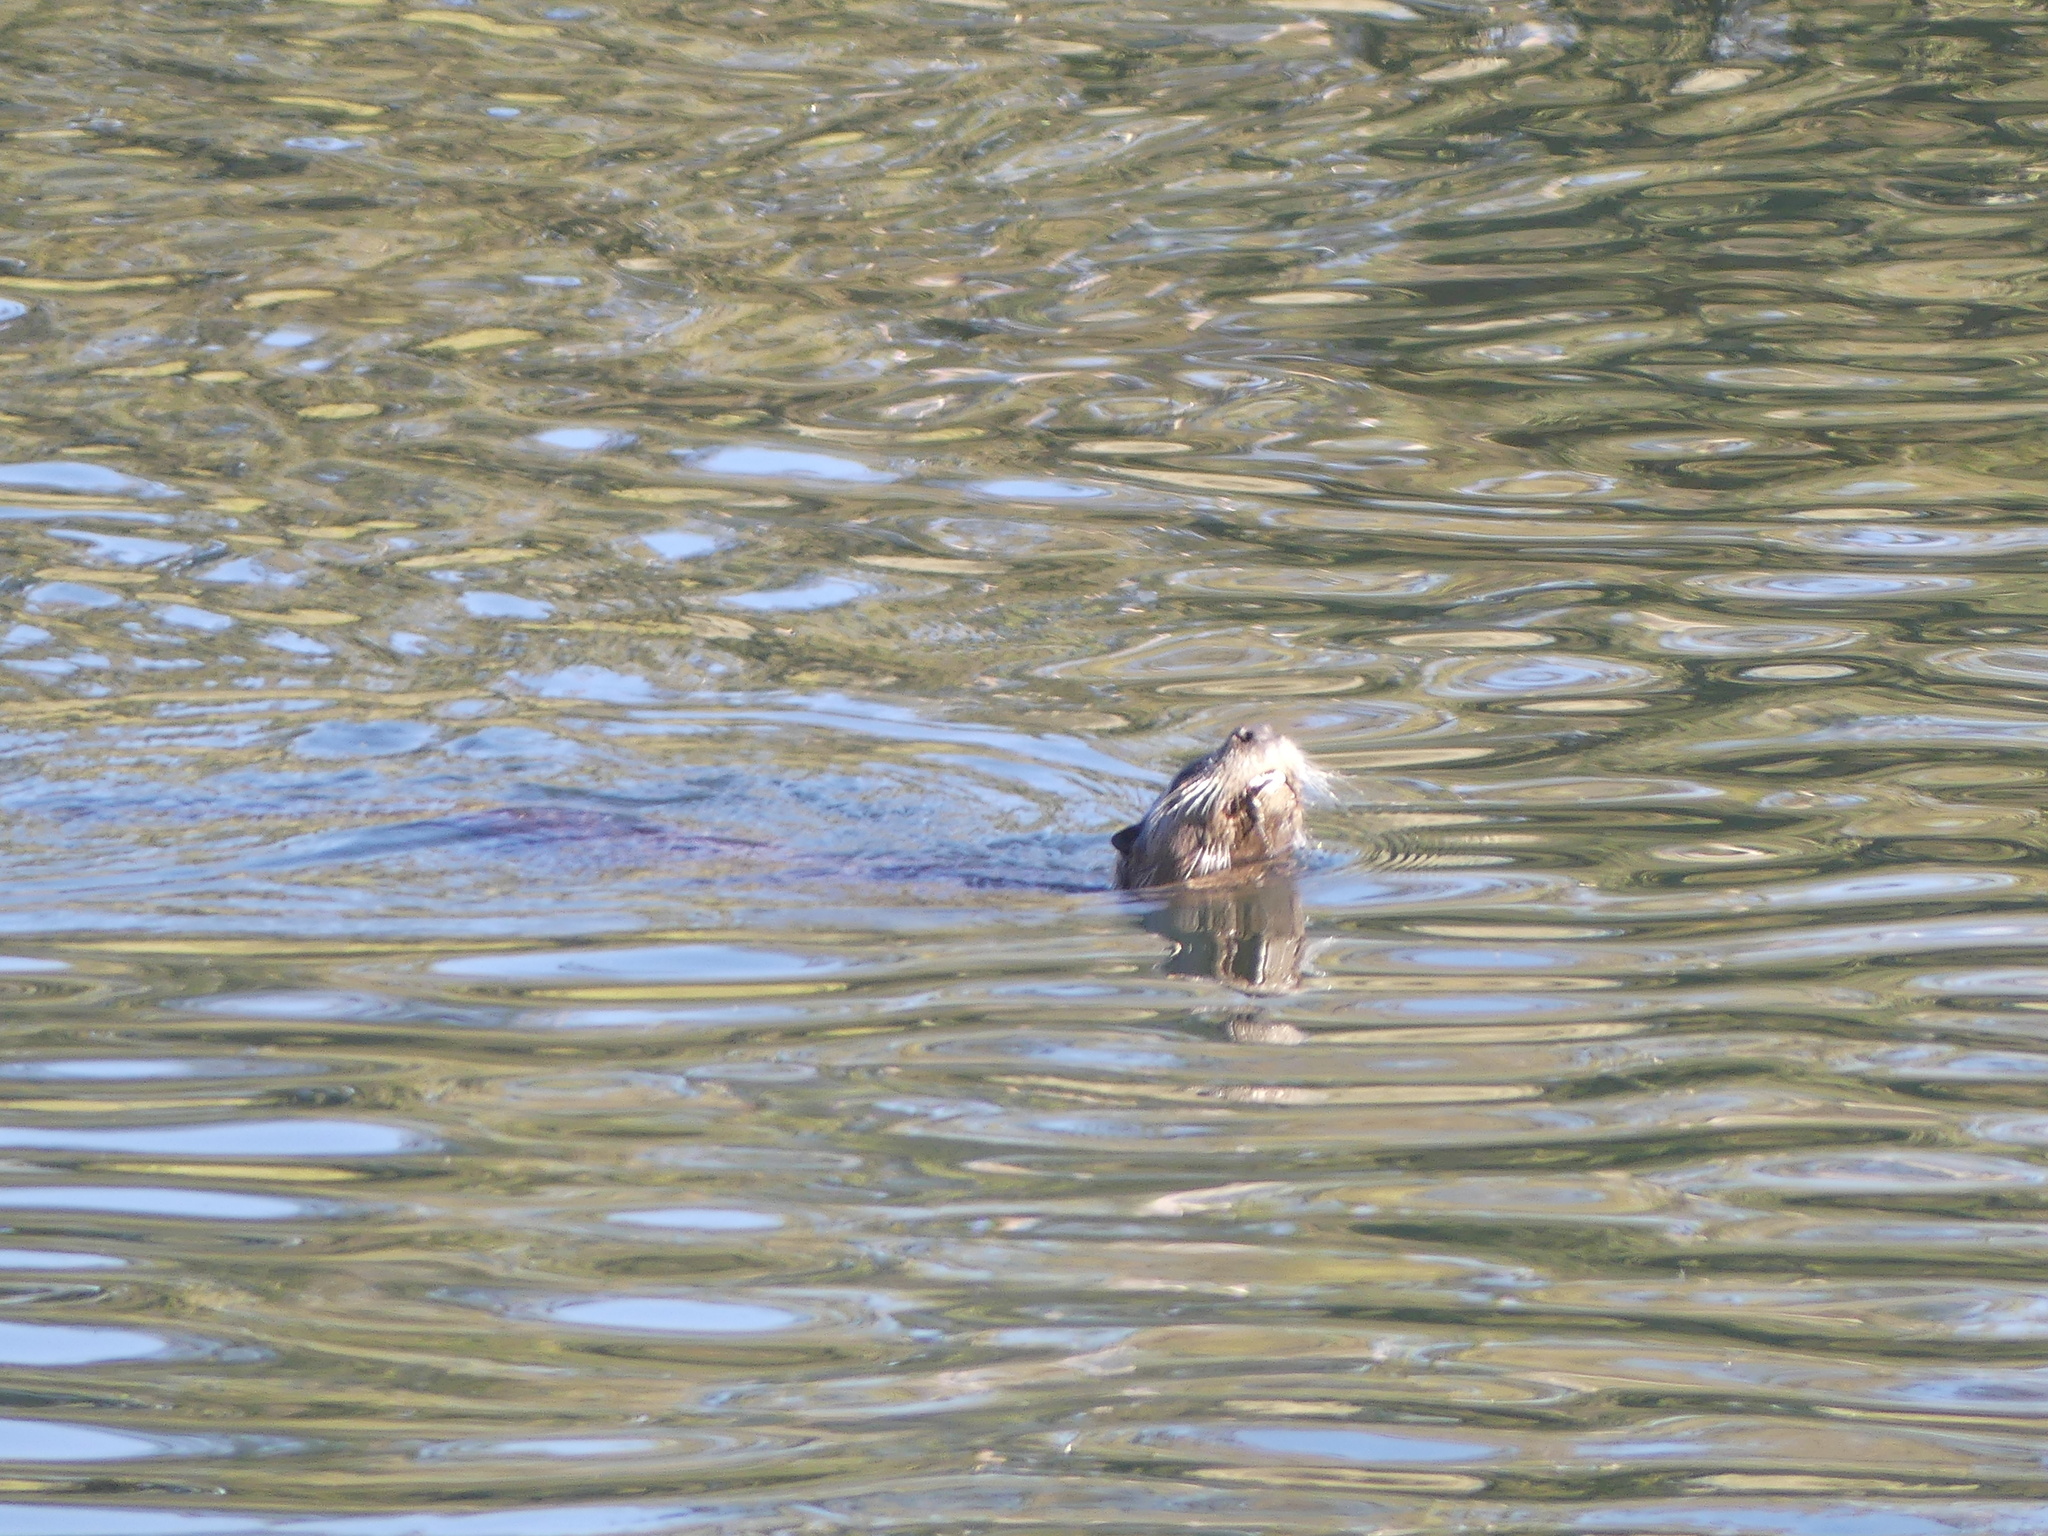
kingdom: Animalia
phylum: Chordata
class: Mammalia
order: Carnivora
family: Mustelidae
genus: Lontra
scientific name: Lontra canadensis
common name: North american river otter
